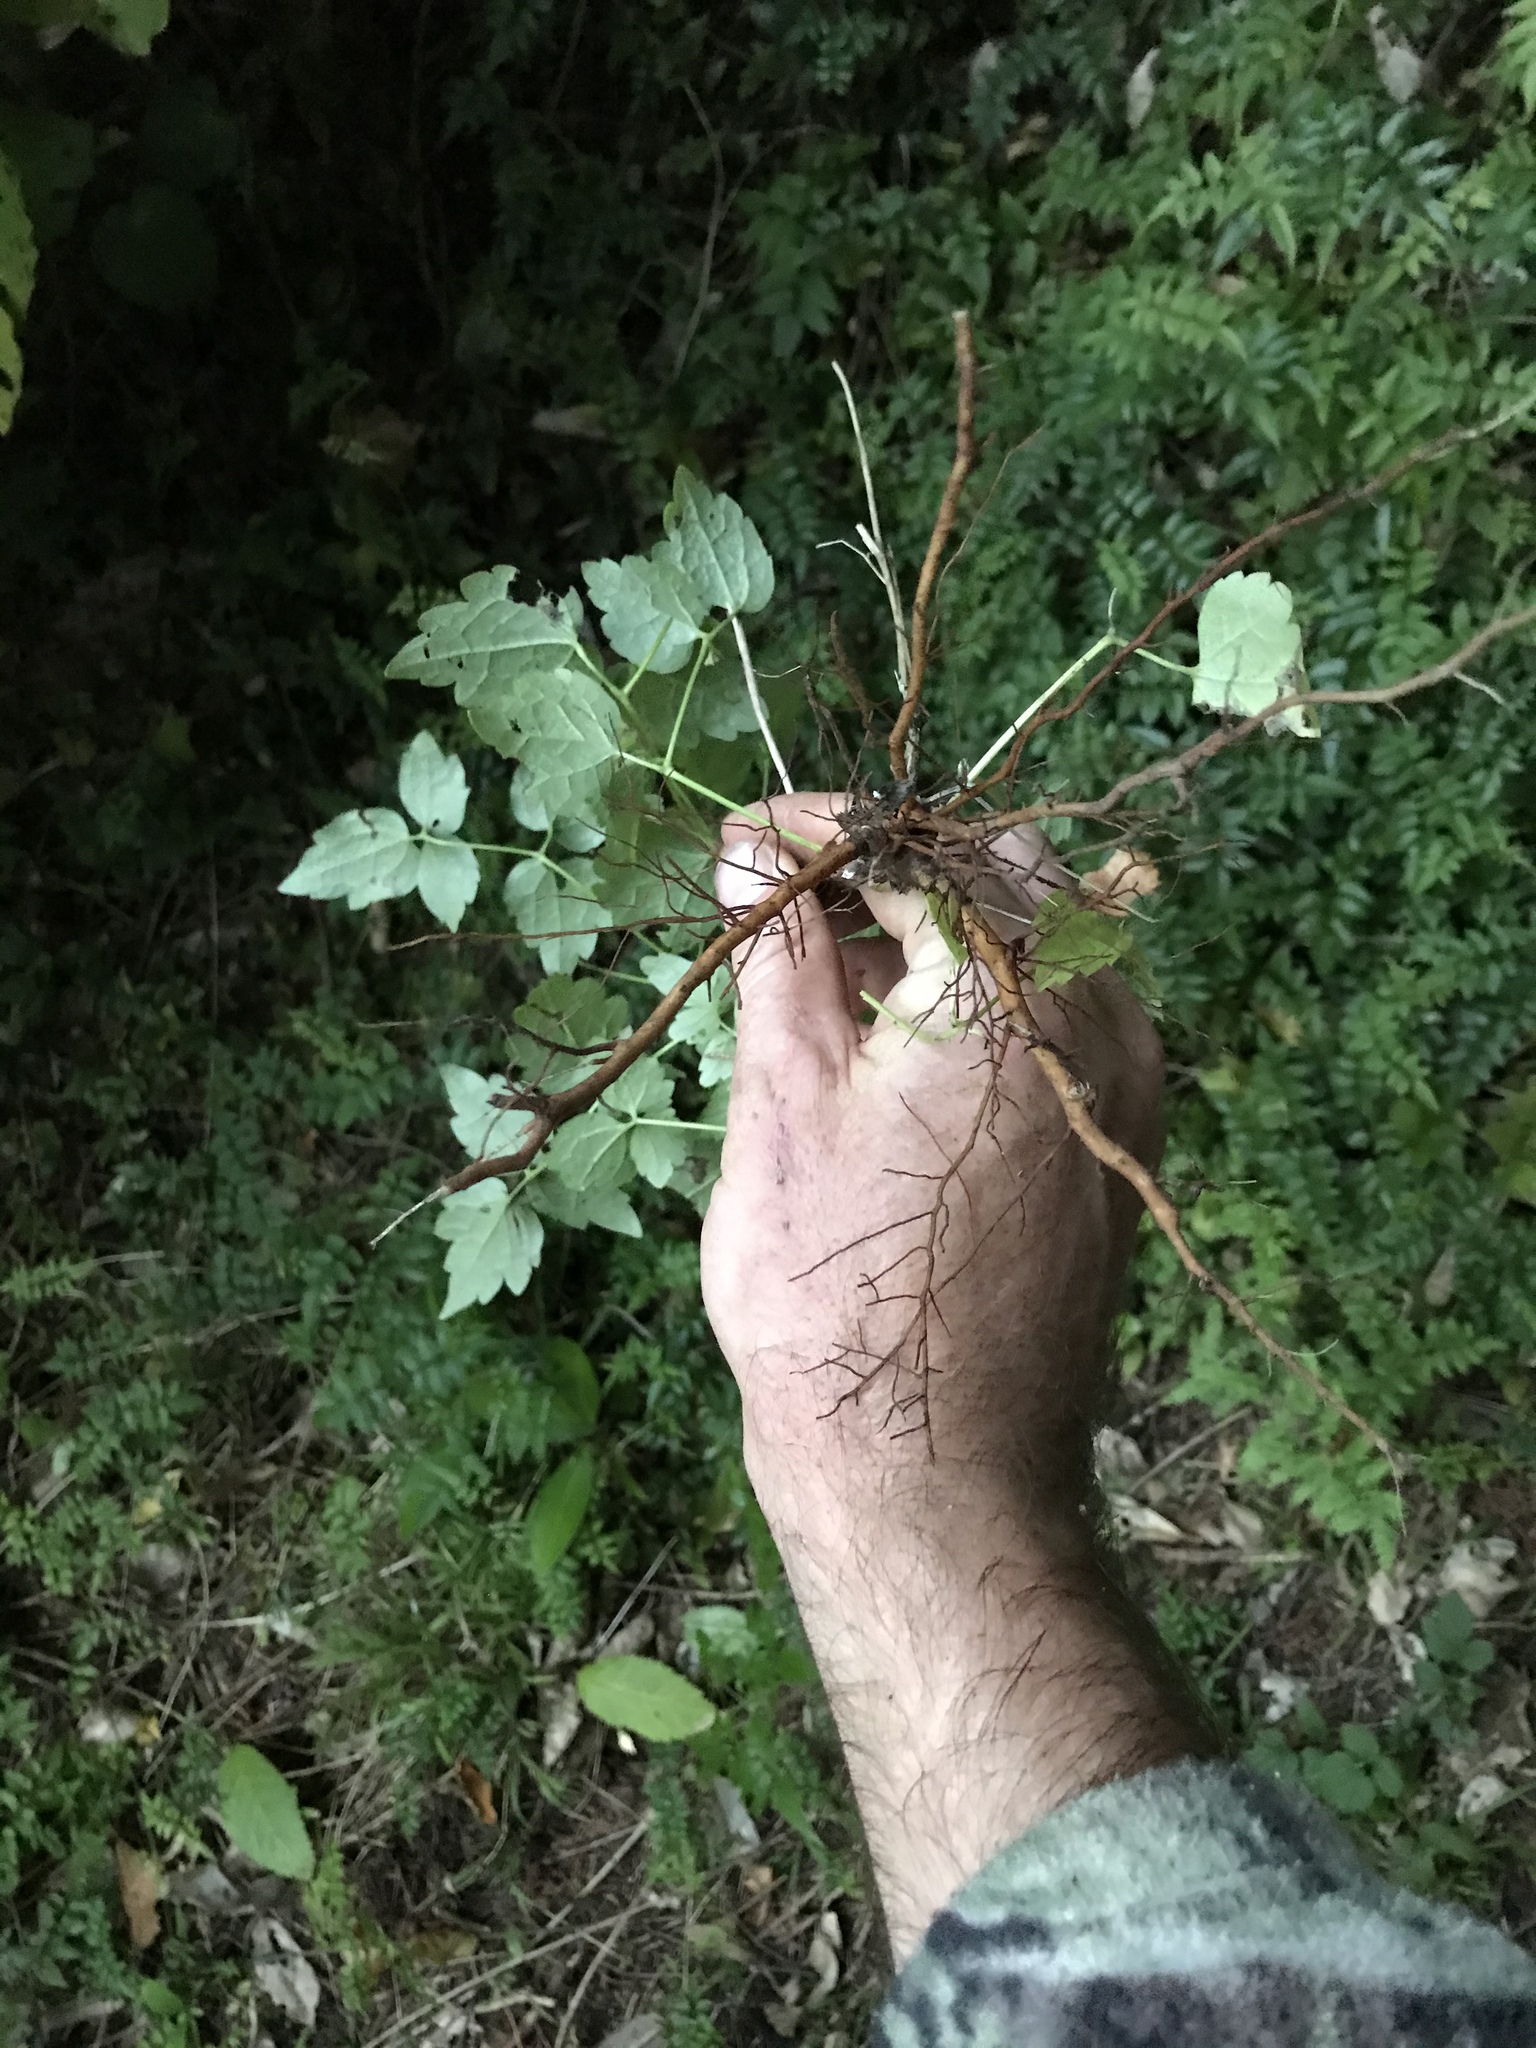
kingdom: Plantae
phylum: Tracheophyta
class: Magnoliopsida
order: Ranunculales
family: Ranunculaceae
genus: Clematis
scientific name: Clematis vitalba
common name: Evergreen clematis
